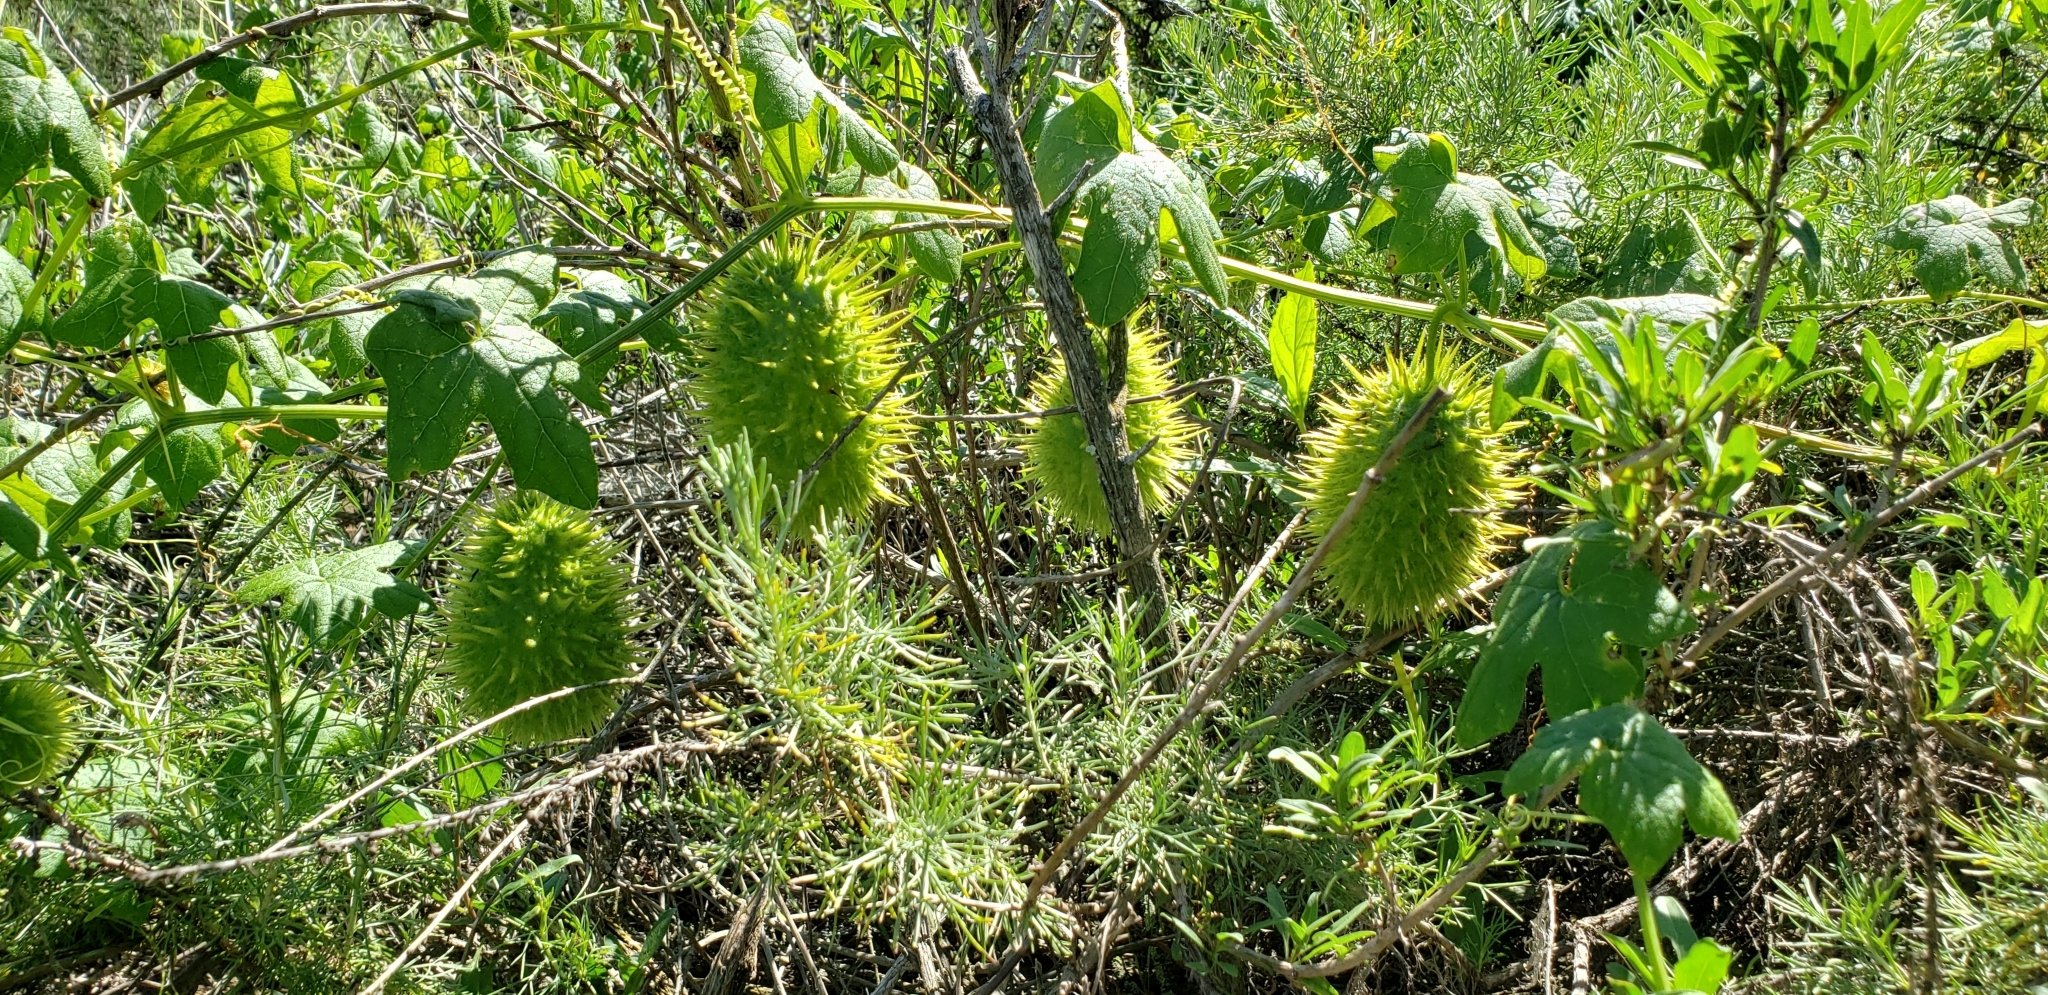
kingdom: Plantae
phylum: Tracheophyta
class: Magnoliopsida
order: Cucurbitales
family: Cucurbitaceae
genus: Marah
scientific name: Marah macrocarpa
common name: Cucamonga manroot
